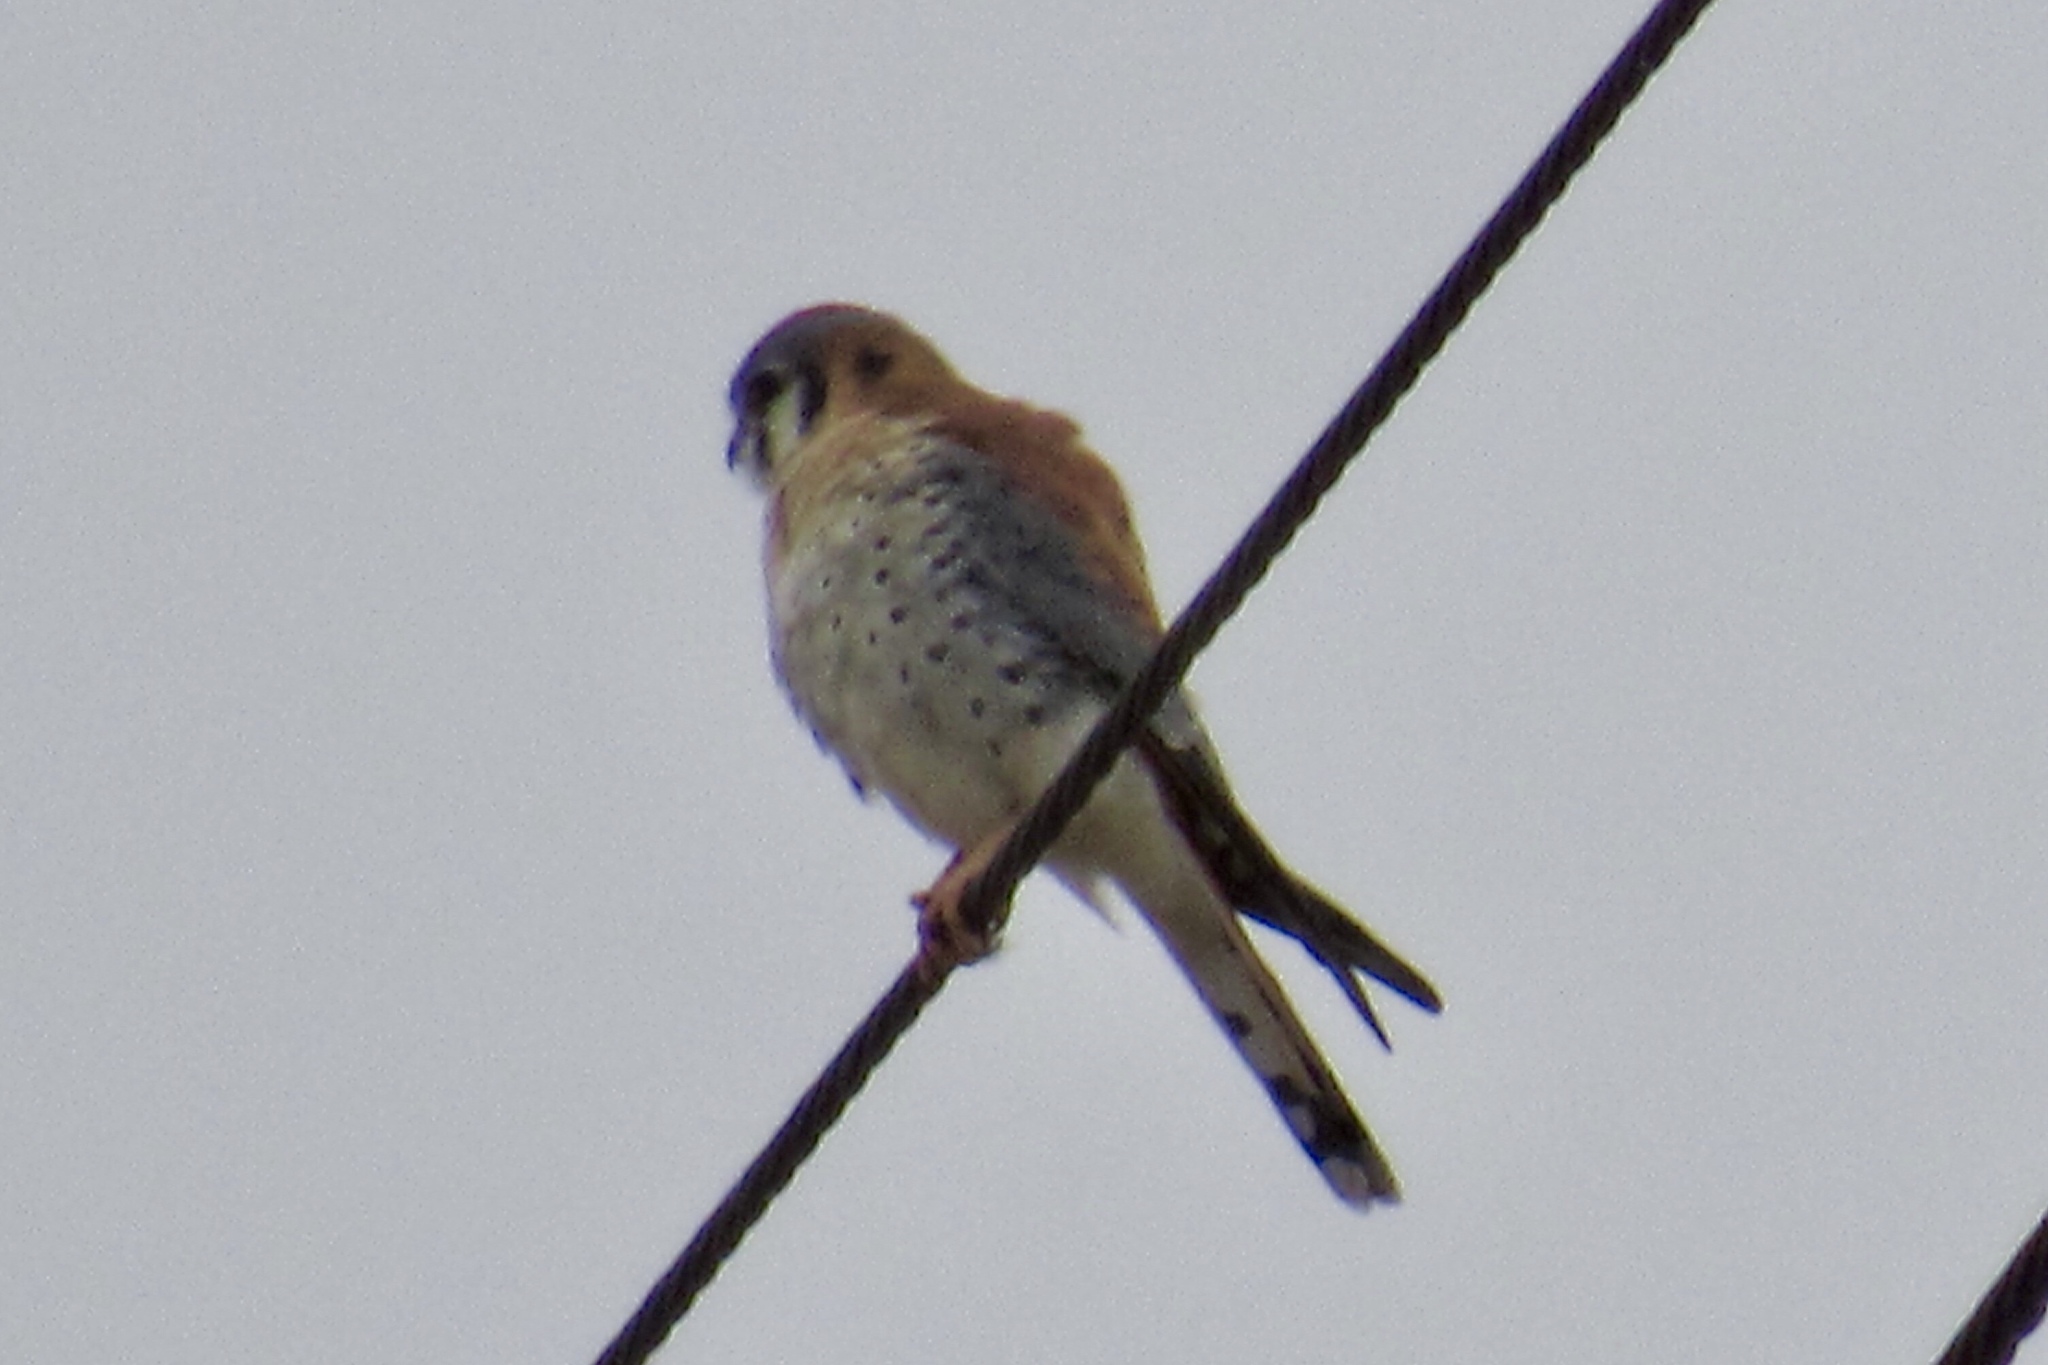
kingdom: Animalia
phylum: Chordata
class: Aves
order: Falconiformes
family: Falconidae
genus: Falco
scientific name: Falco sparverius
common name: American kestrel
